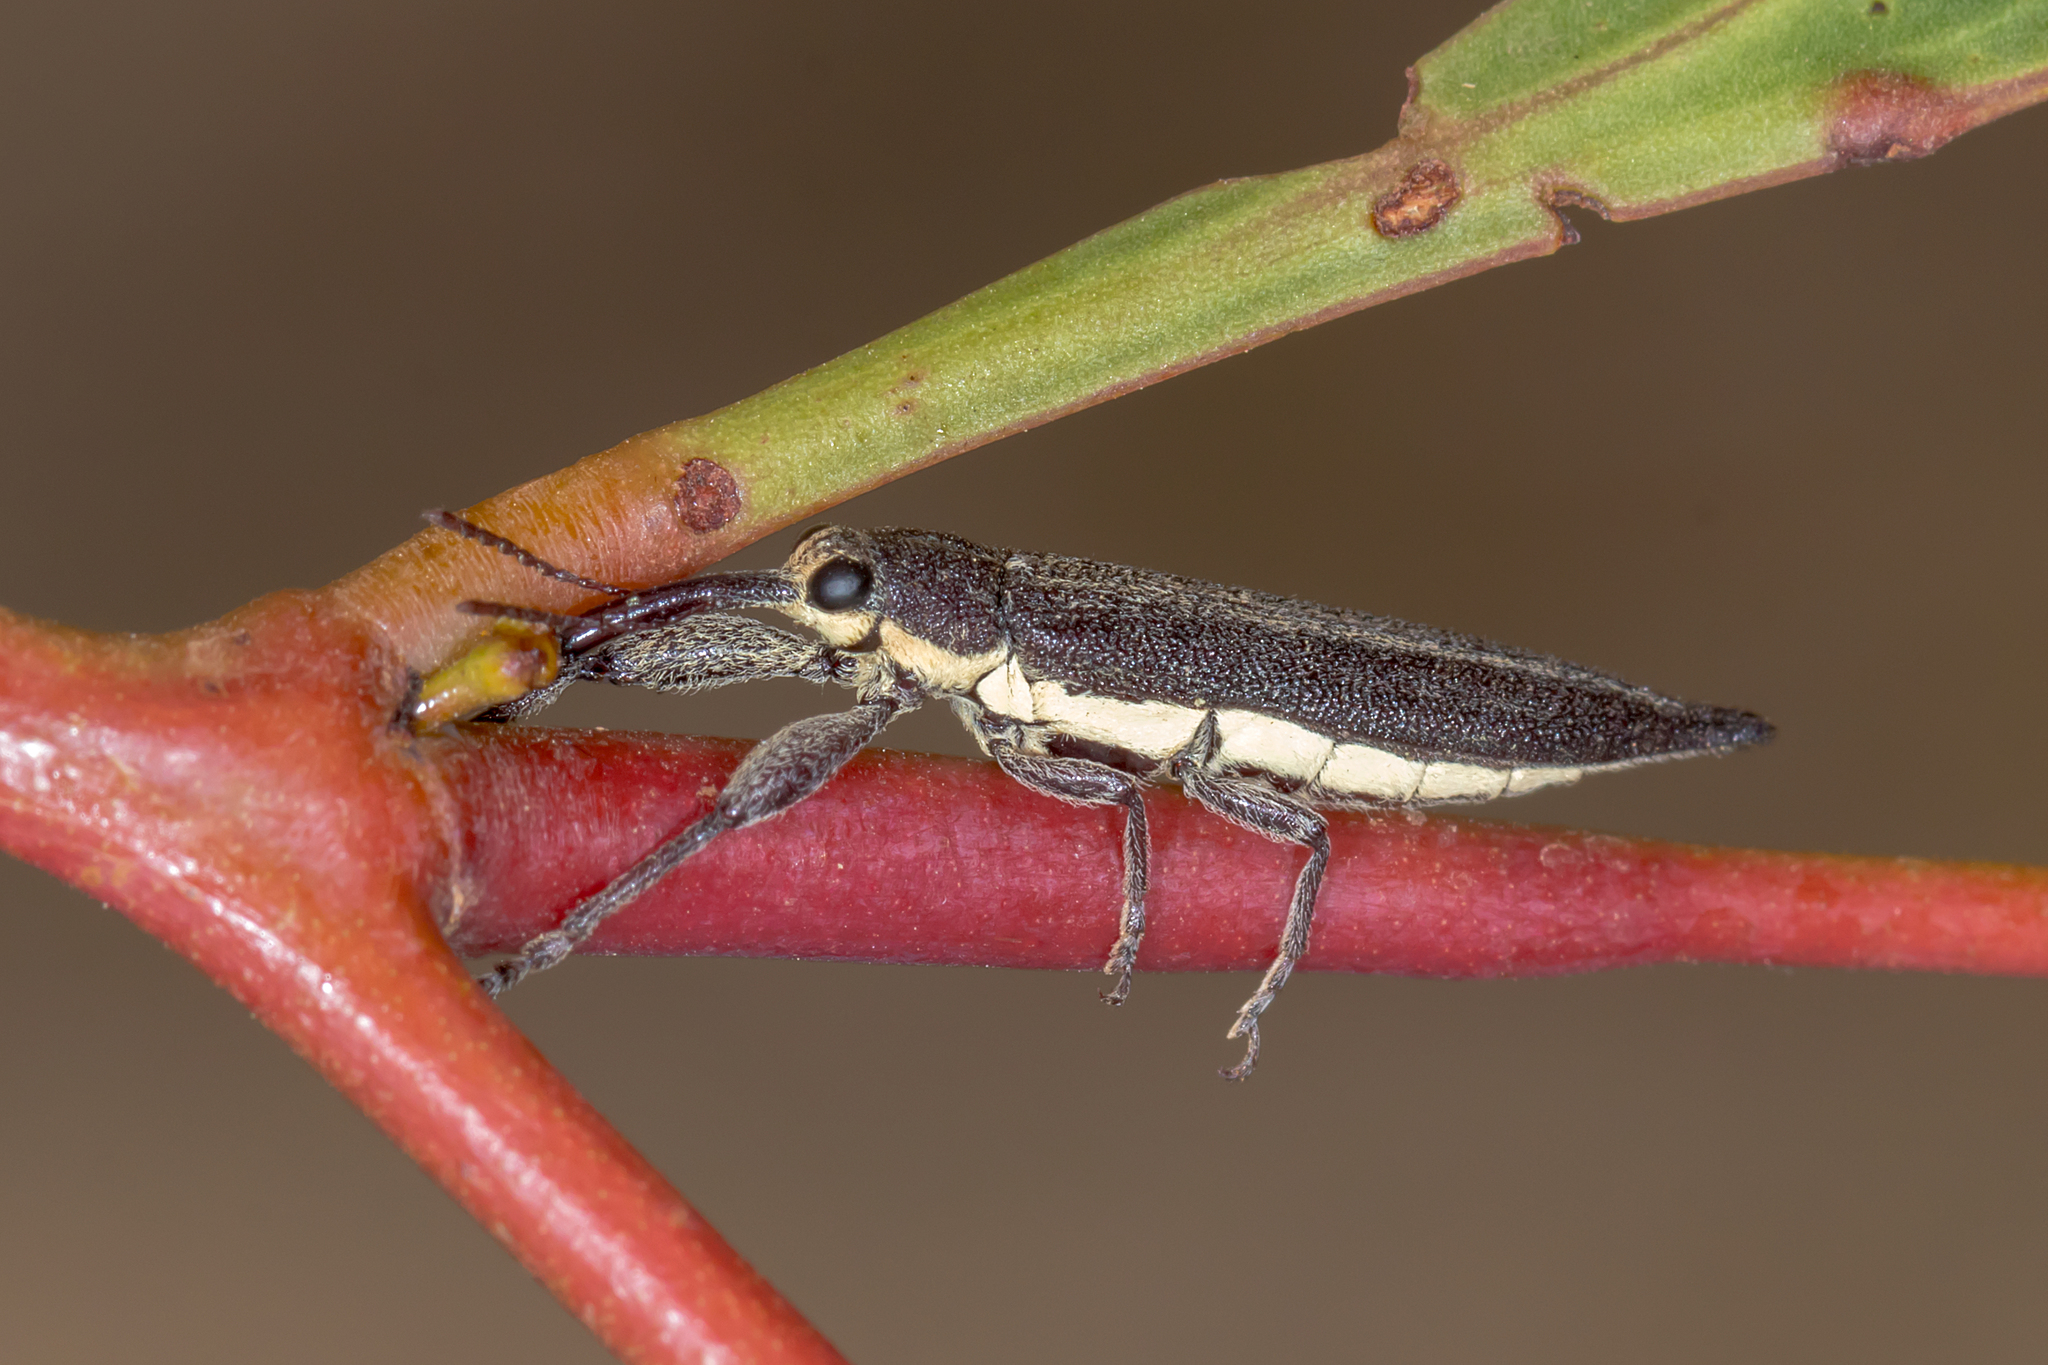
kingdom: Animalia
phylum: Arthropoda
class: Insecta
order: Coleoptera
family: Belidae
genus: Rhinotia
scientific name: Rhinotia
